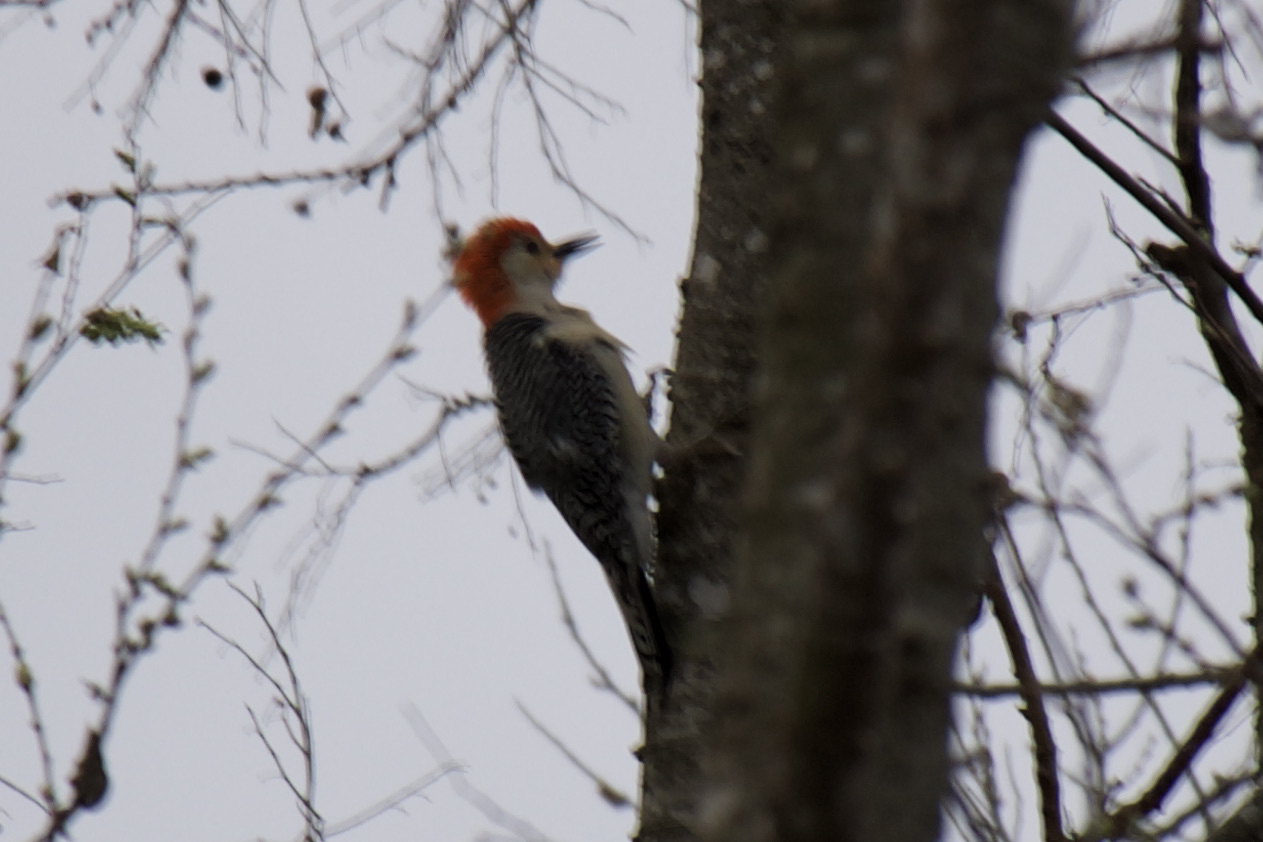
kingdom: Animalia
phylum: Chordata
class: Aves
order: Piciformes
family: Picidae
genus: Melanerpes
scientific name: Melanerpes carolinus
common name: Red-bellied woodpecker
